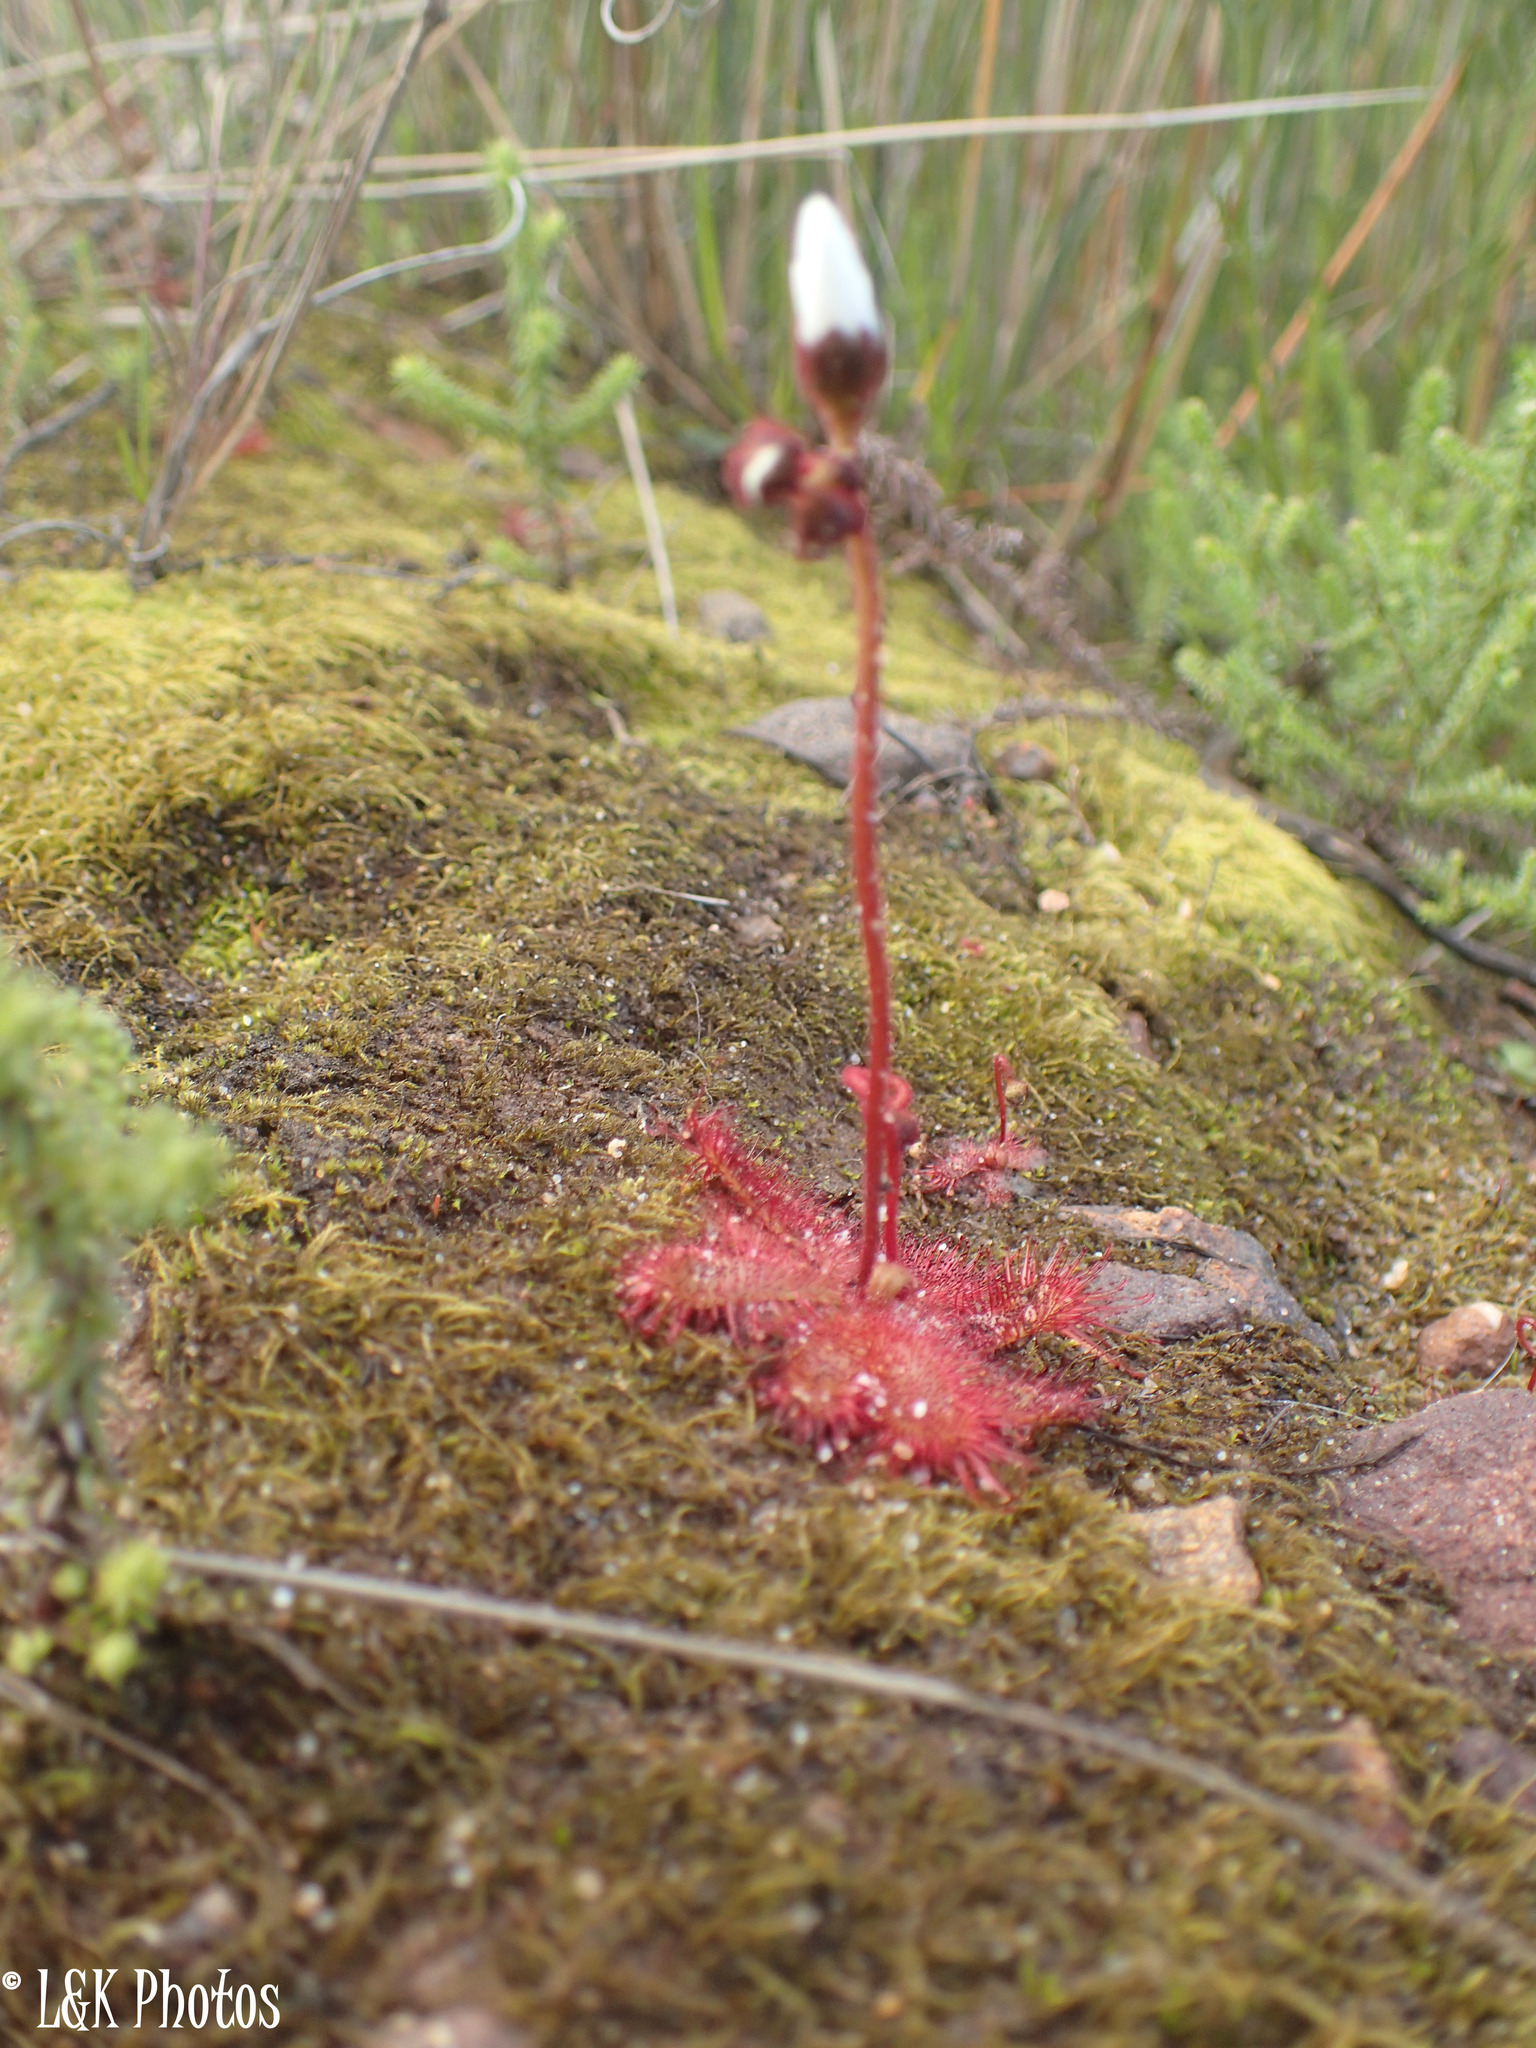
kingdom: Plantae
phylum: Tracheophyta
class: Magnoliopsida
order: Caryophyllales
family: Droseraceae
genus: Drosera
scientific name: Drosera trinervia
